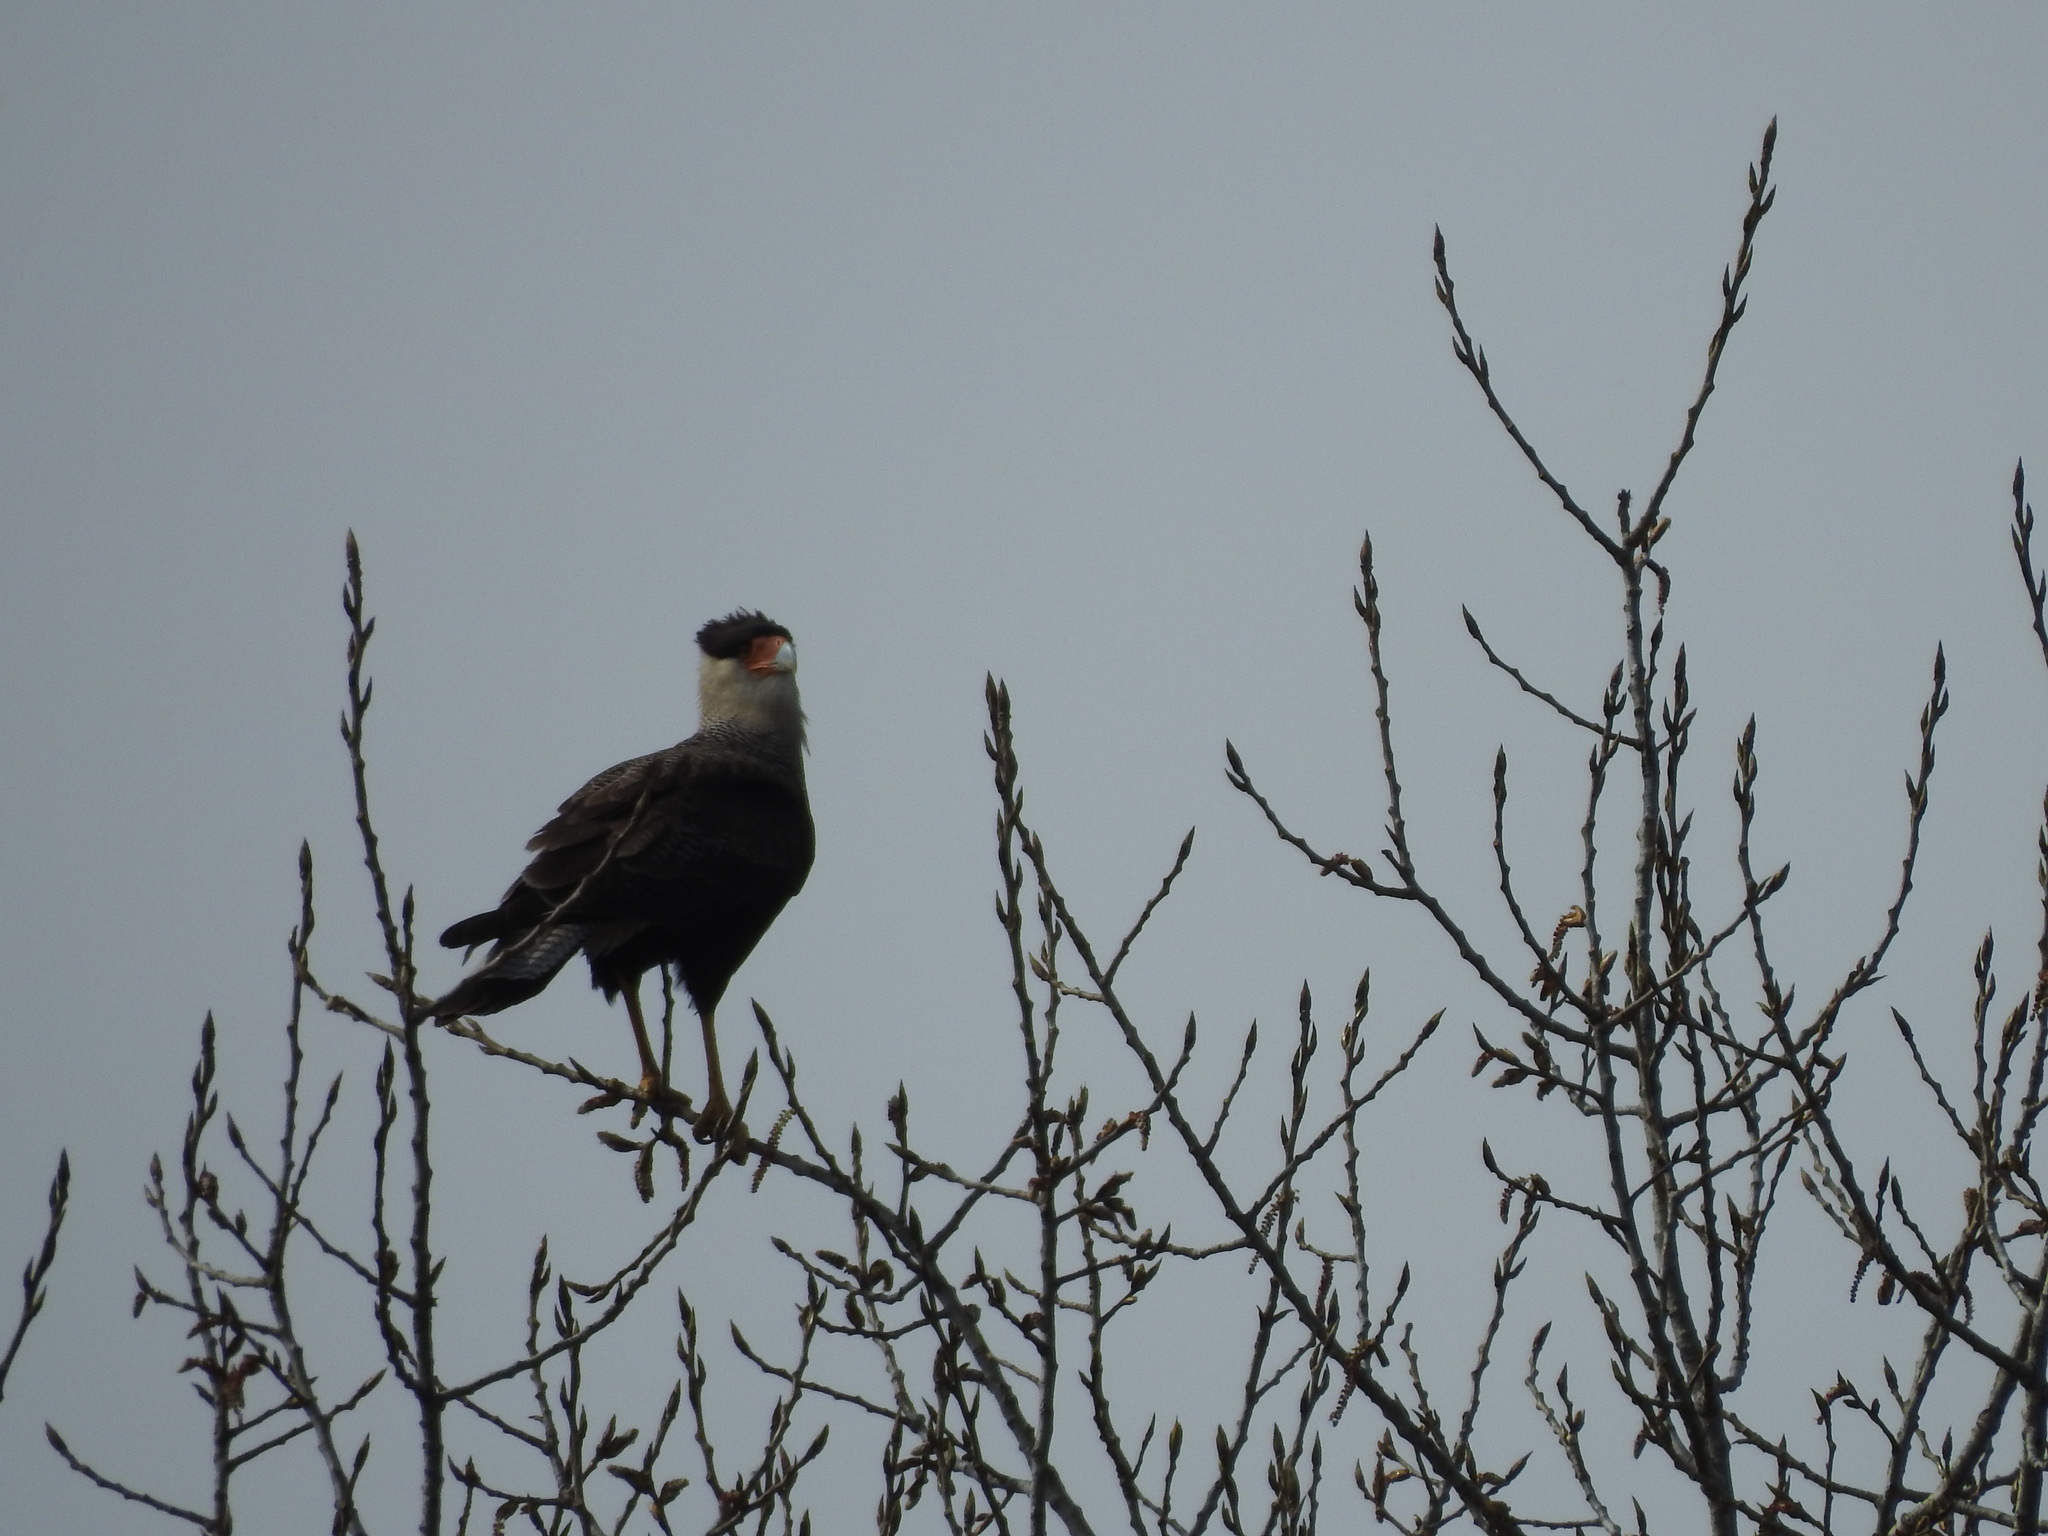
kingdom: Animalia
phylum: Chordata
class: Aves
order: Falconiformes
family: Falconidae
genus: Caracara
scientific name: Caracara plancus
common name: Southern caracara
